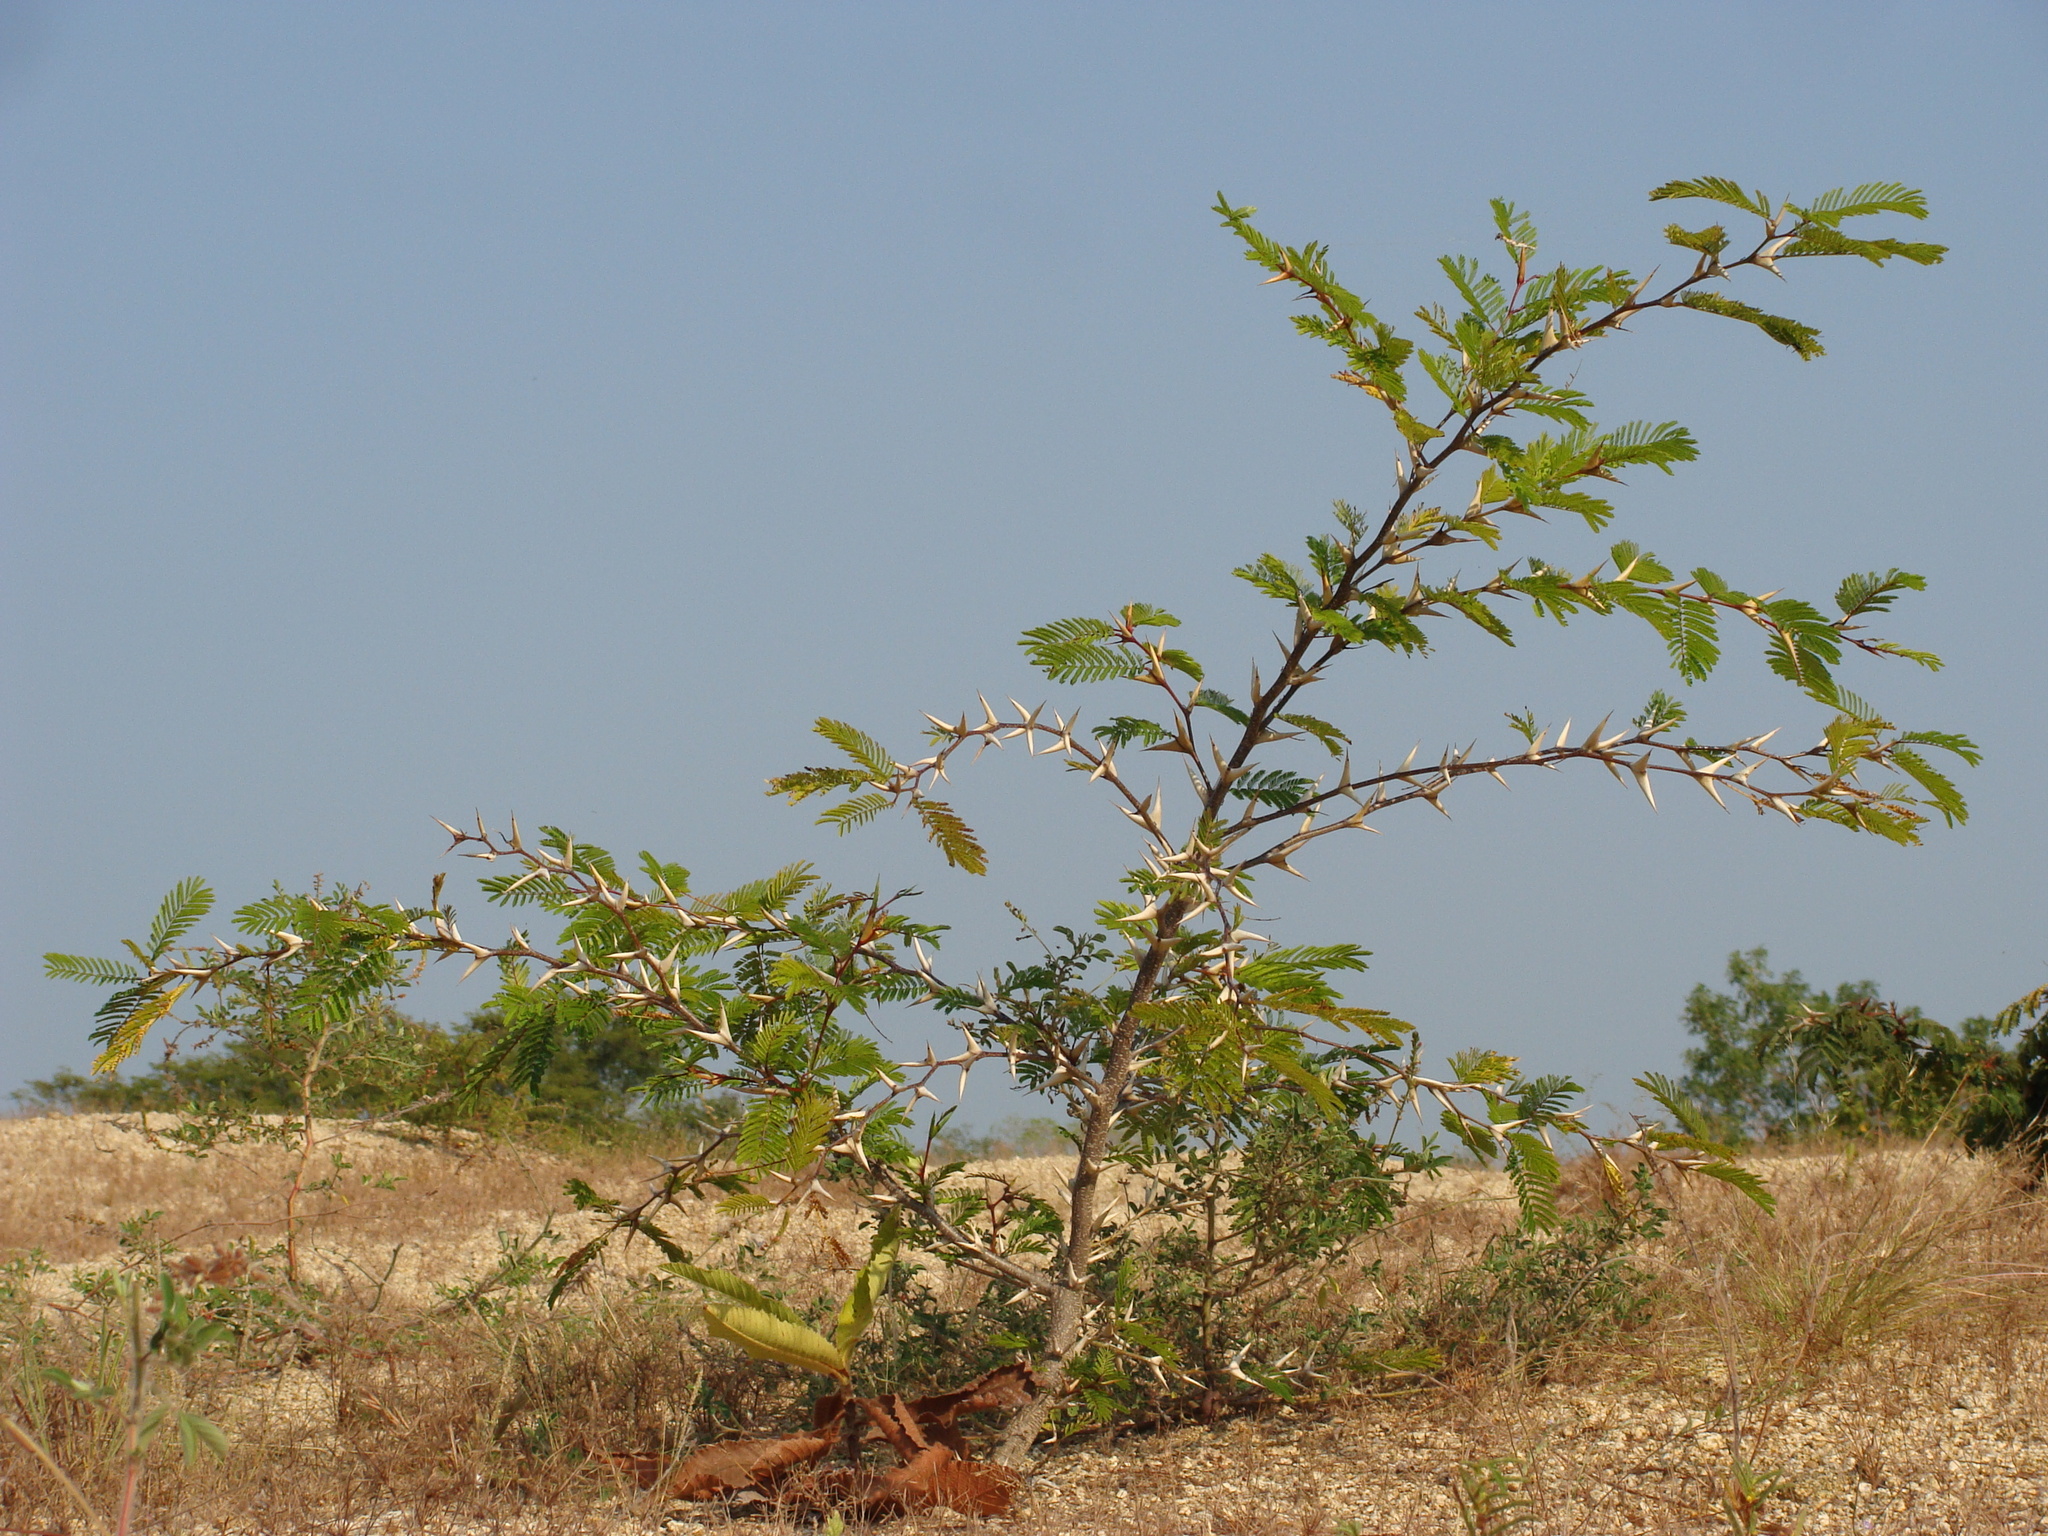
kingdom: Plantae
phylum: Tracheophyta
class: Magnoliopsida
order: Fabales
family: Fabaceae
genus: Vachellia
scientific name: Vachellia cornigera
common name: Bullhorn wattle
